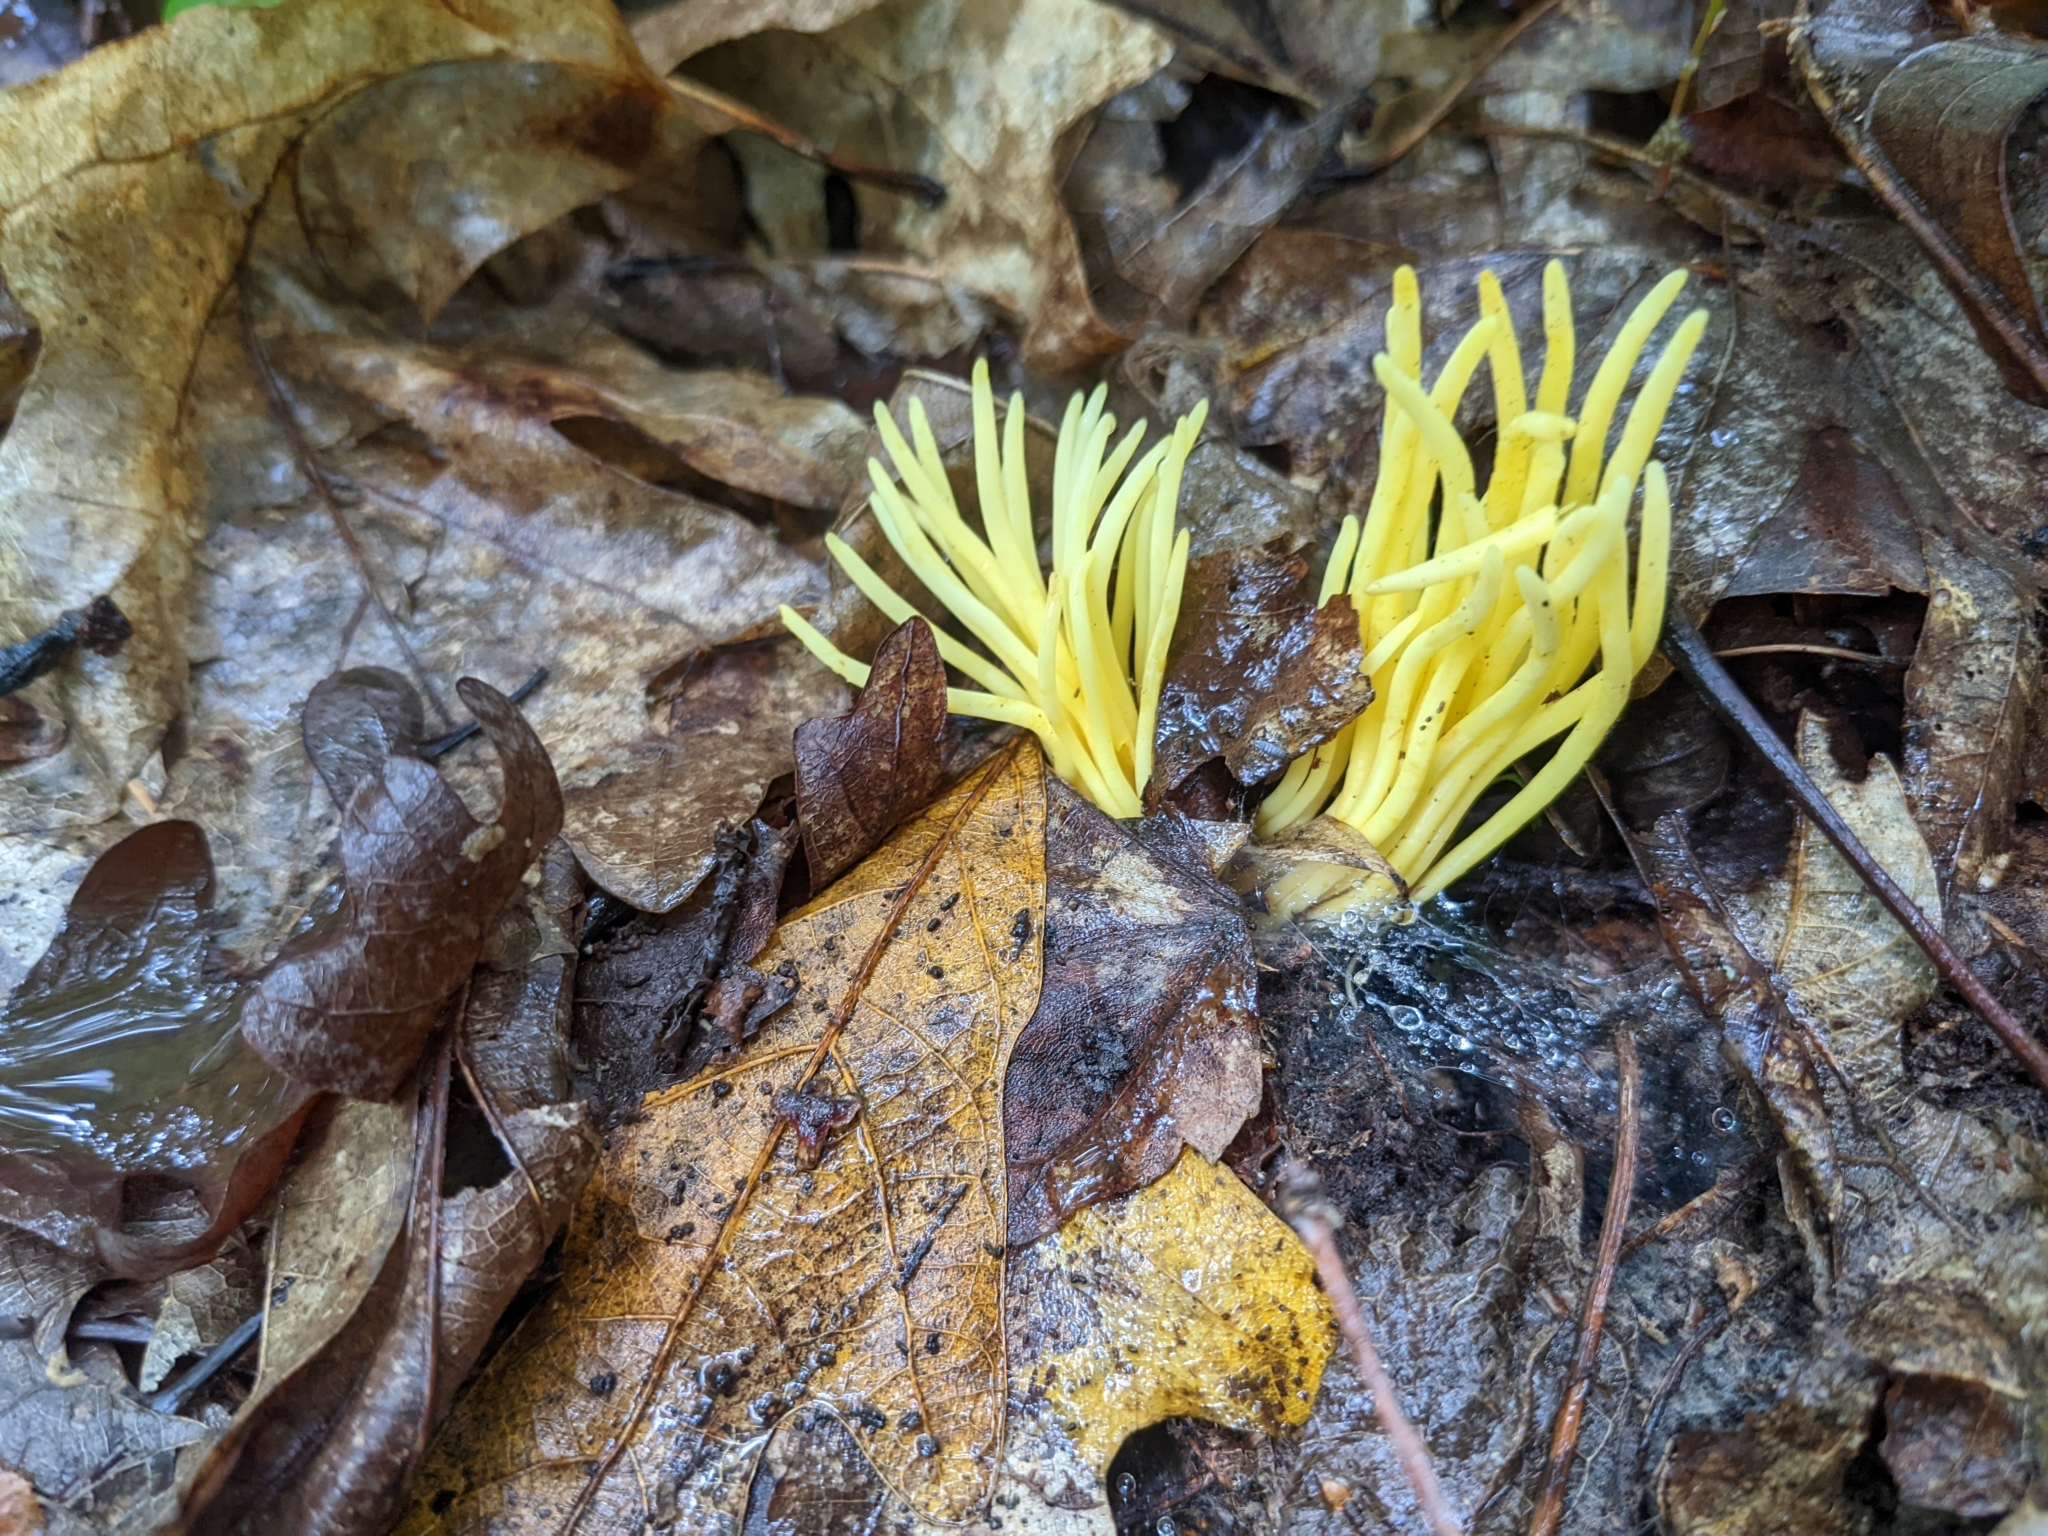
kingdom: Fungi
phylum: Basidiomycota
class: Agaricomycetes
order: Agaricales
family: Clavariaceae
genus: Clavulinopsis
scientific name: Clavulinopsis fusiformis
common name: Golden spindles
